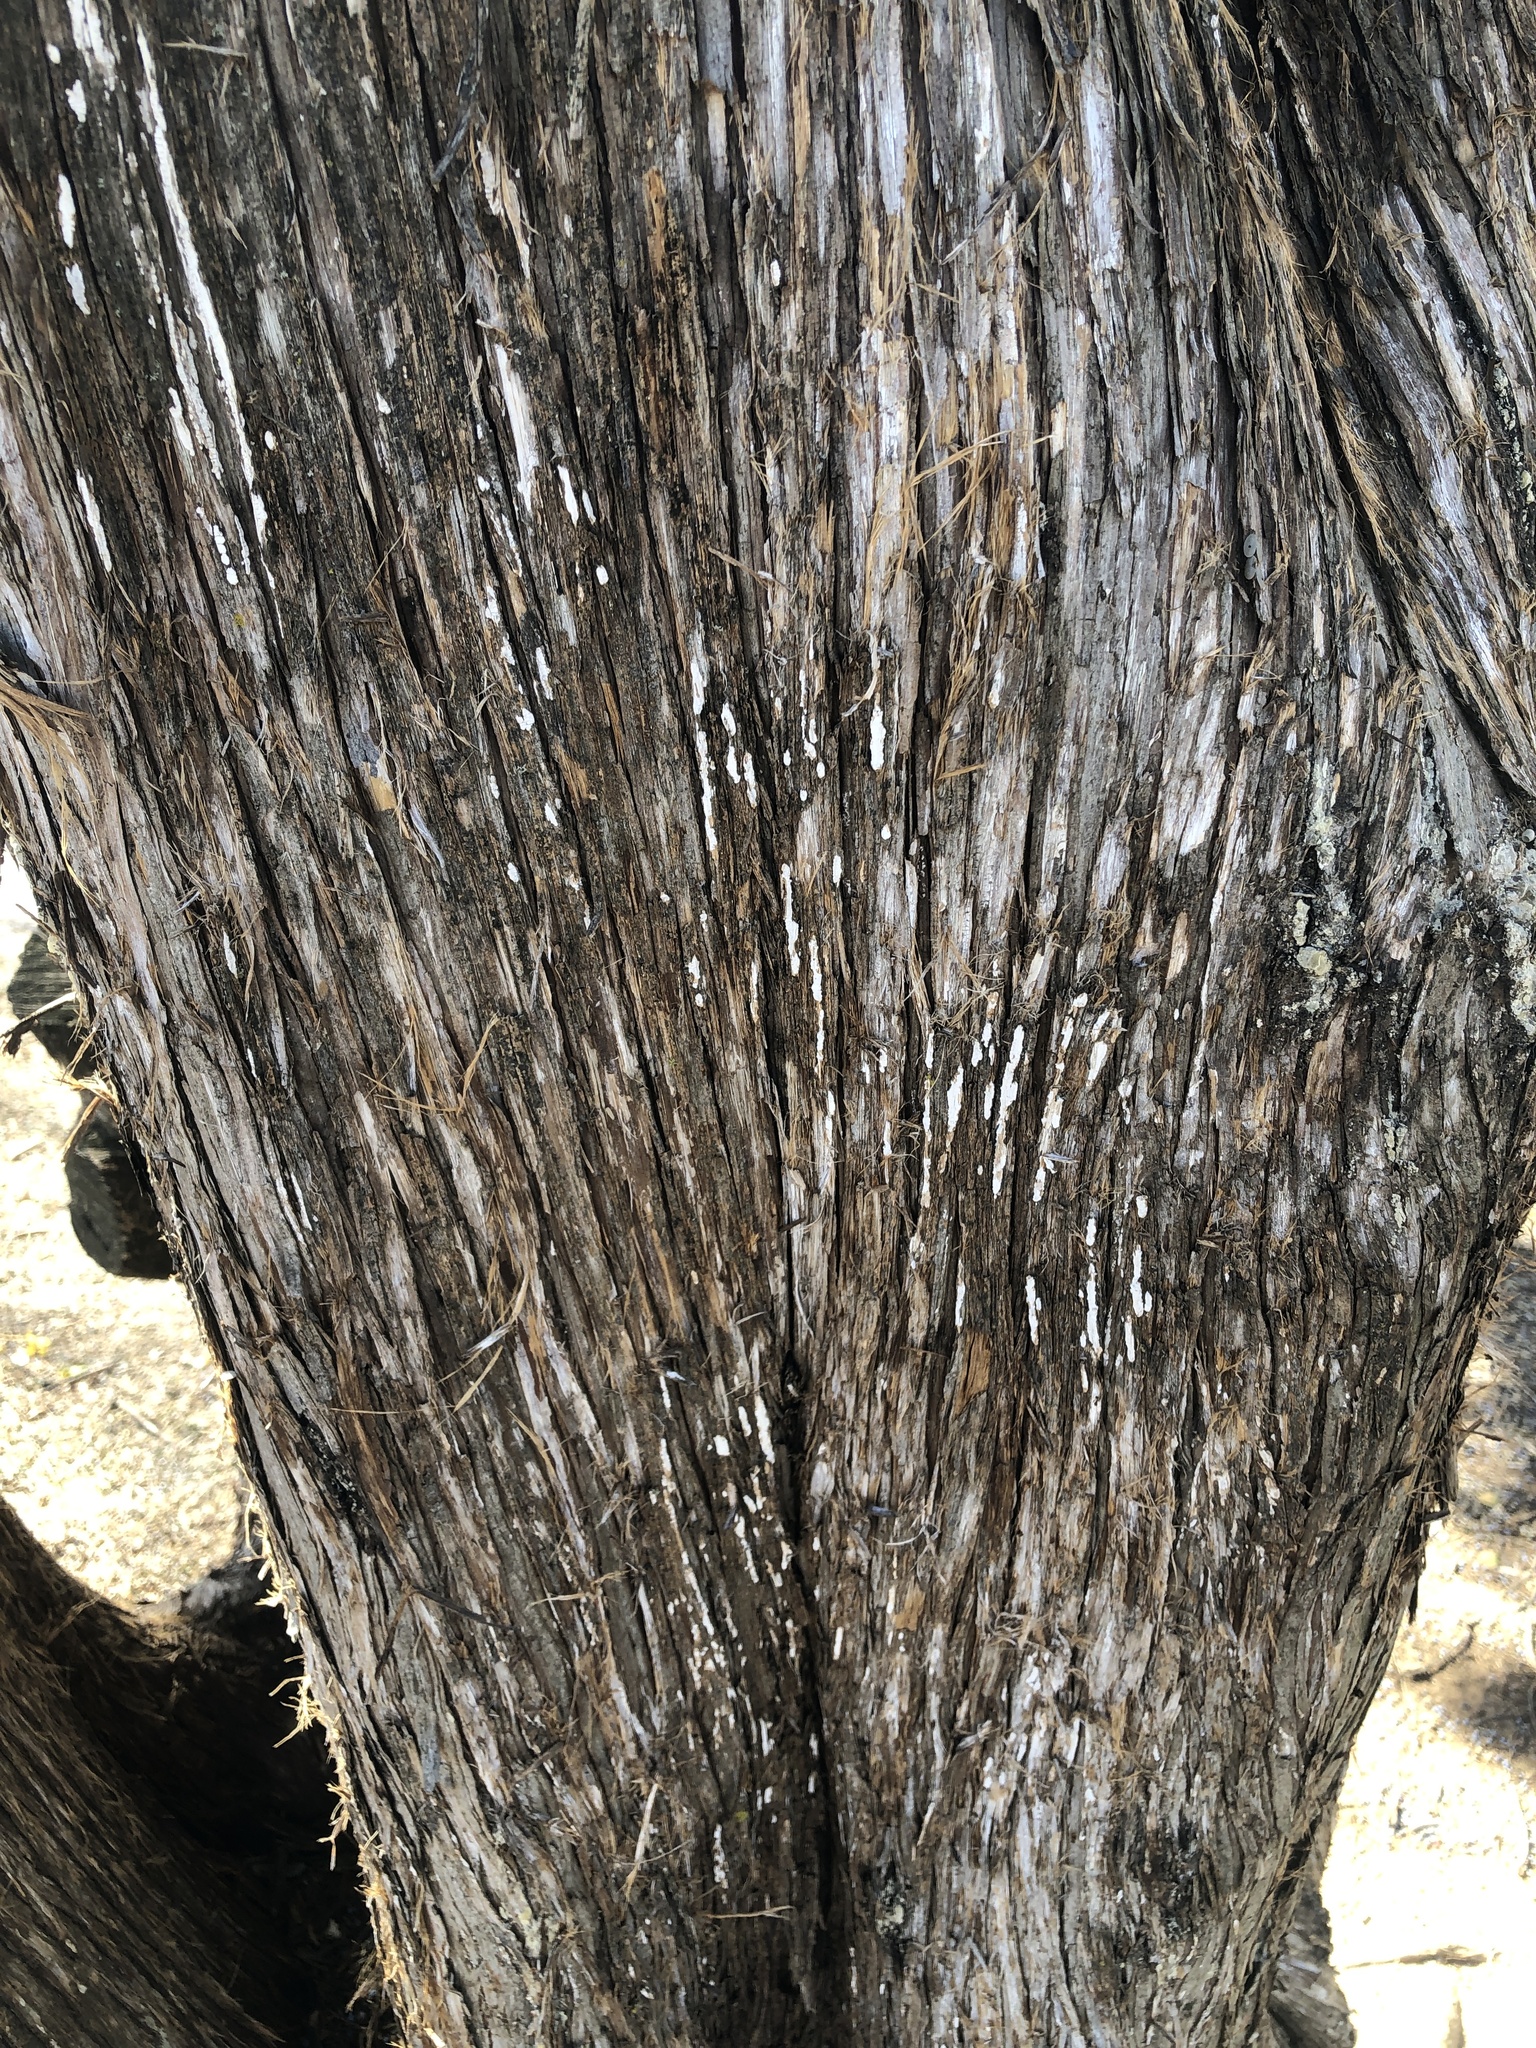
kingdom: Fungi
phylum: Basidiomycota
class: Agaricomycetes
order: Agaricales
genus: Dendrothele
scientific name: Dendrothele nivosa
